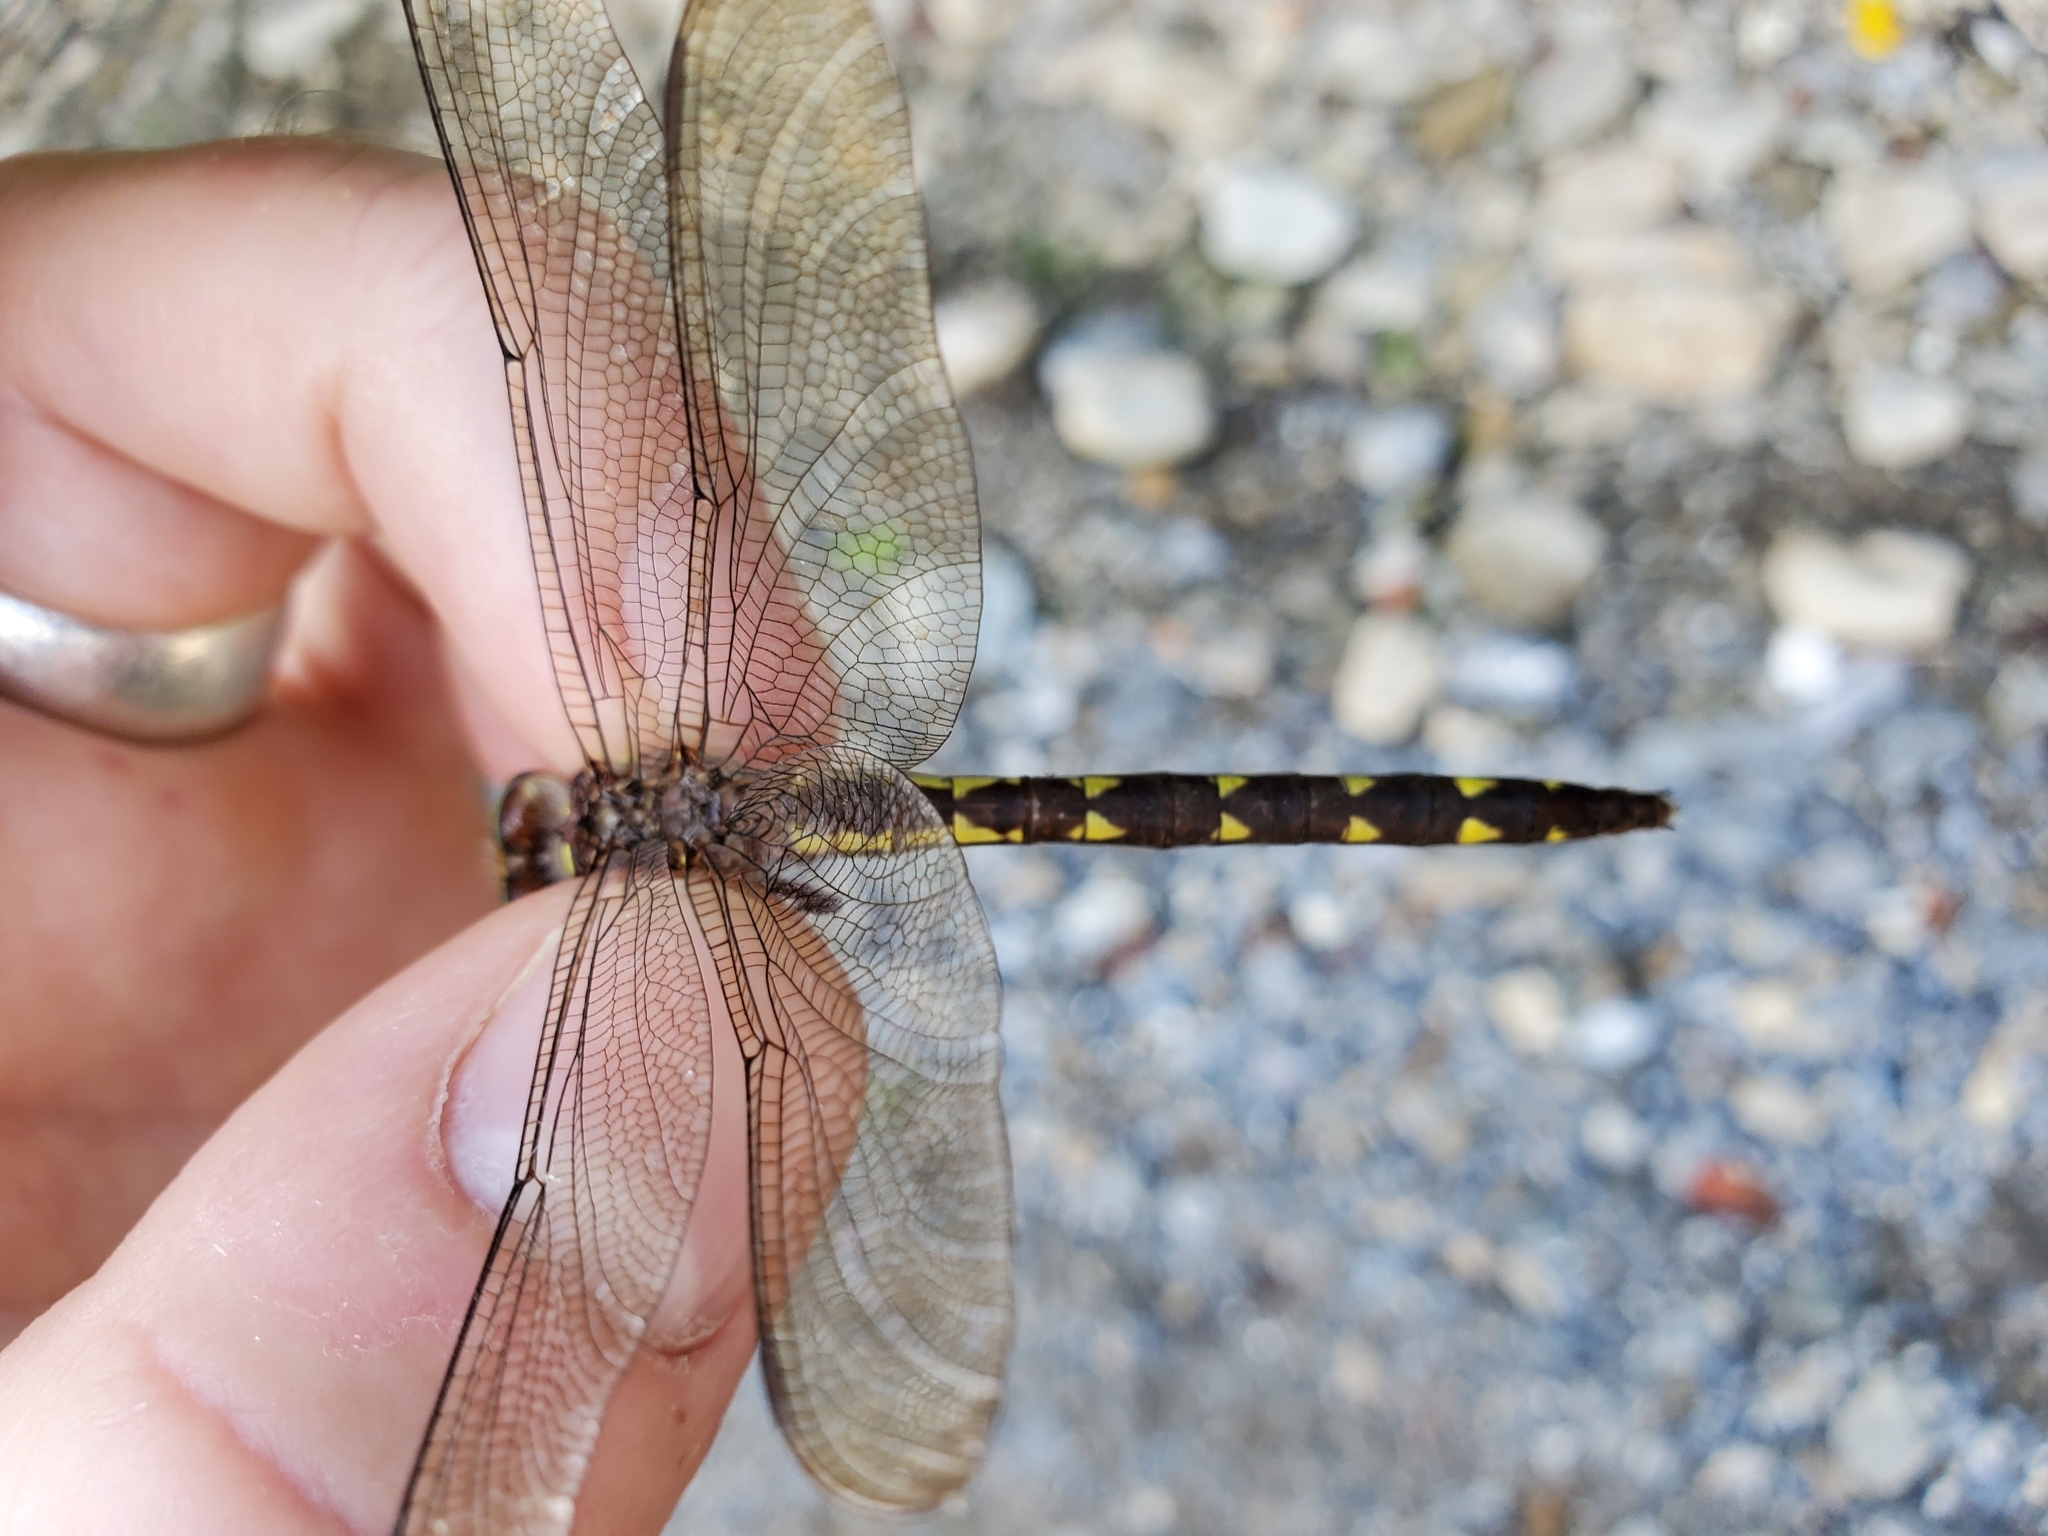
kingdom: Animalia
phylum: Arthropoda
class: Insecta
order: Odonata
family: Cordulegastridae
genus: Cordulegaster
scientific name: Cordulegaster bilineata
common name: Brown spiketail
